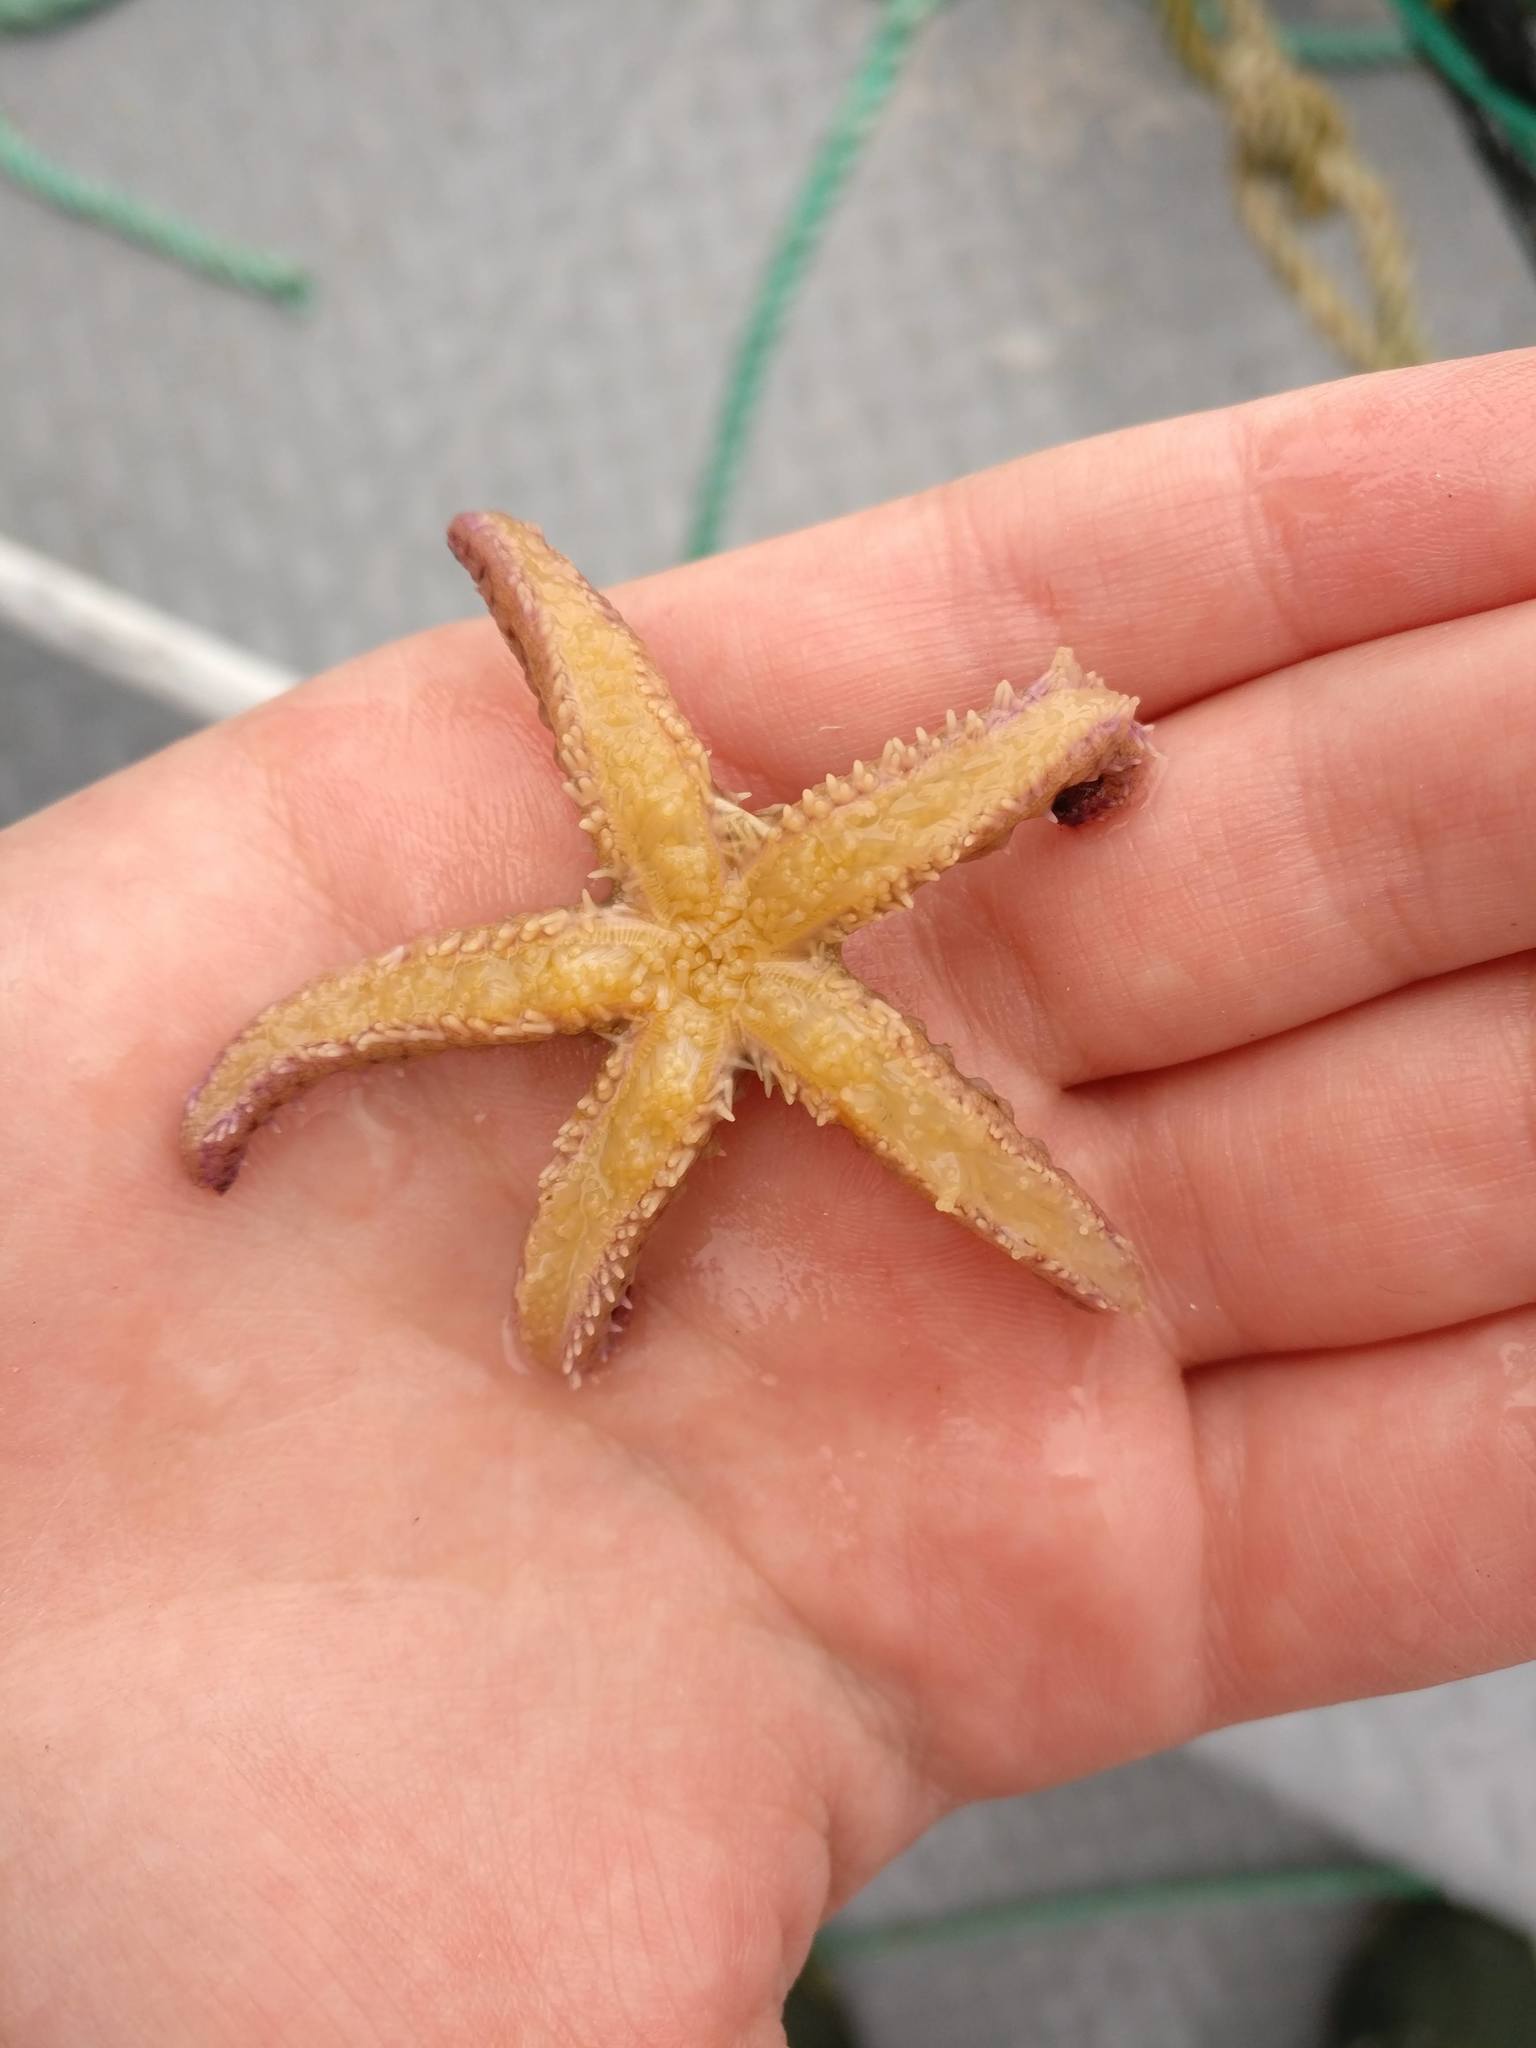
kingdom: Animalia
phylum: Echinodermata
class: Asteroidea
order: Forcipulatida
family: Asteriidae
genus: Marthasterias
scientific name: Marthasterias glacialis
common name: Spiny starfish
